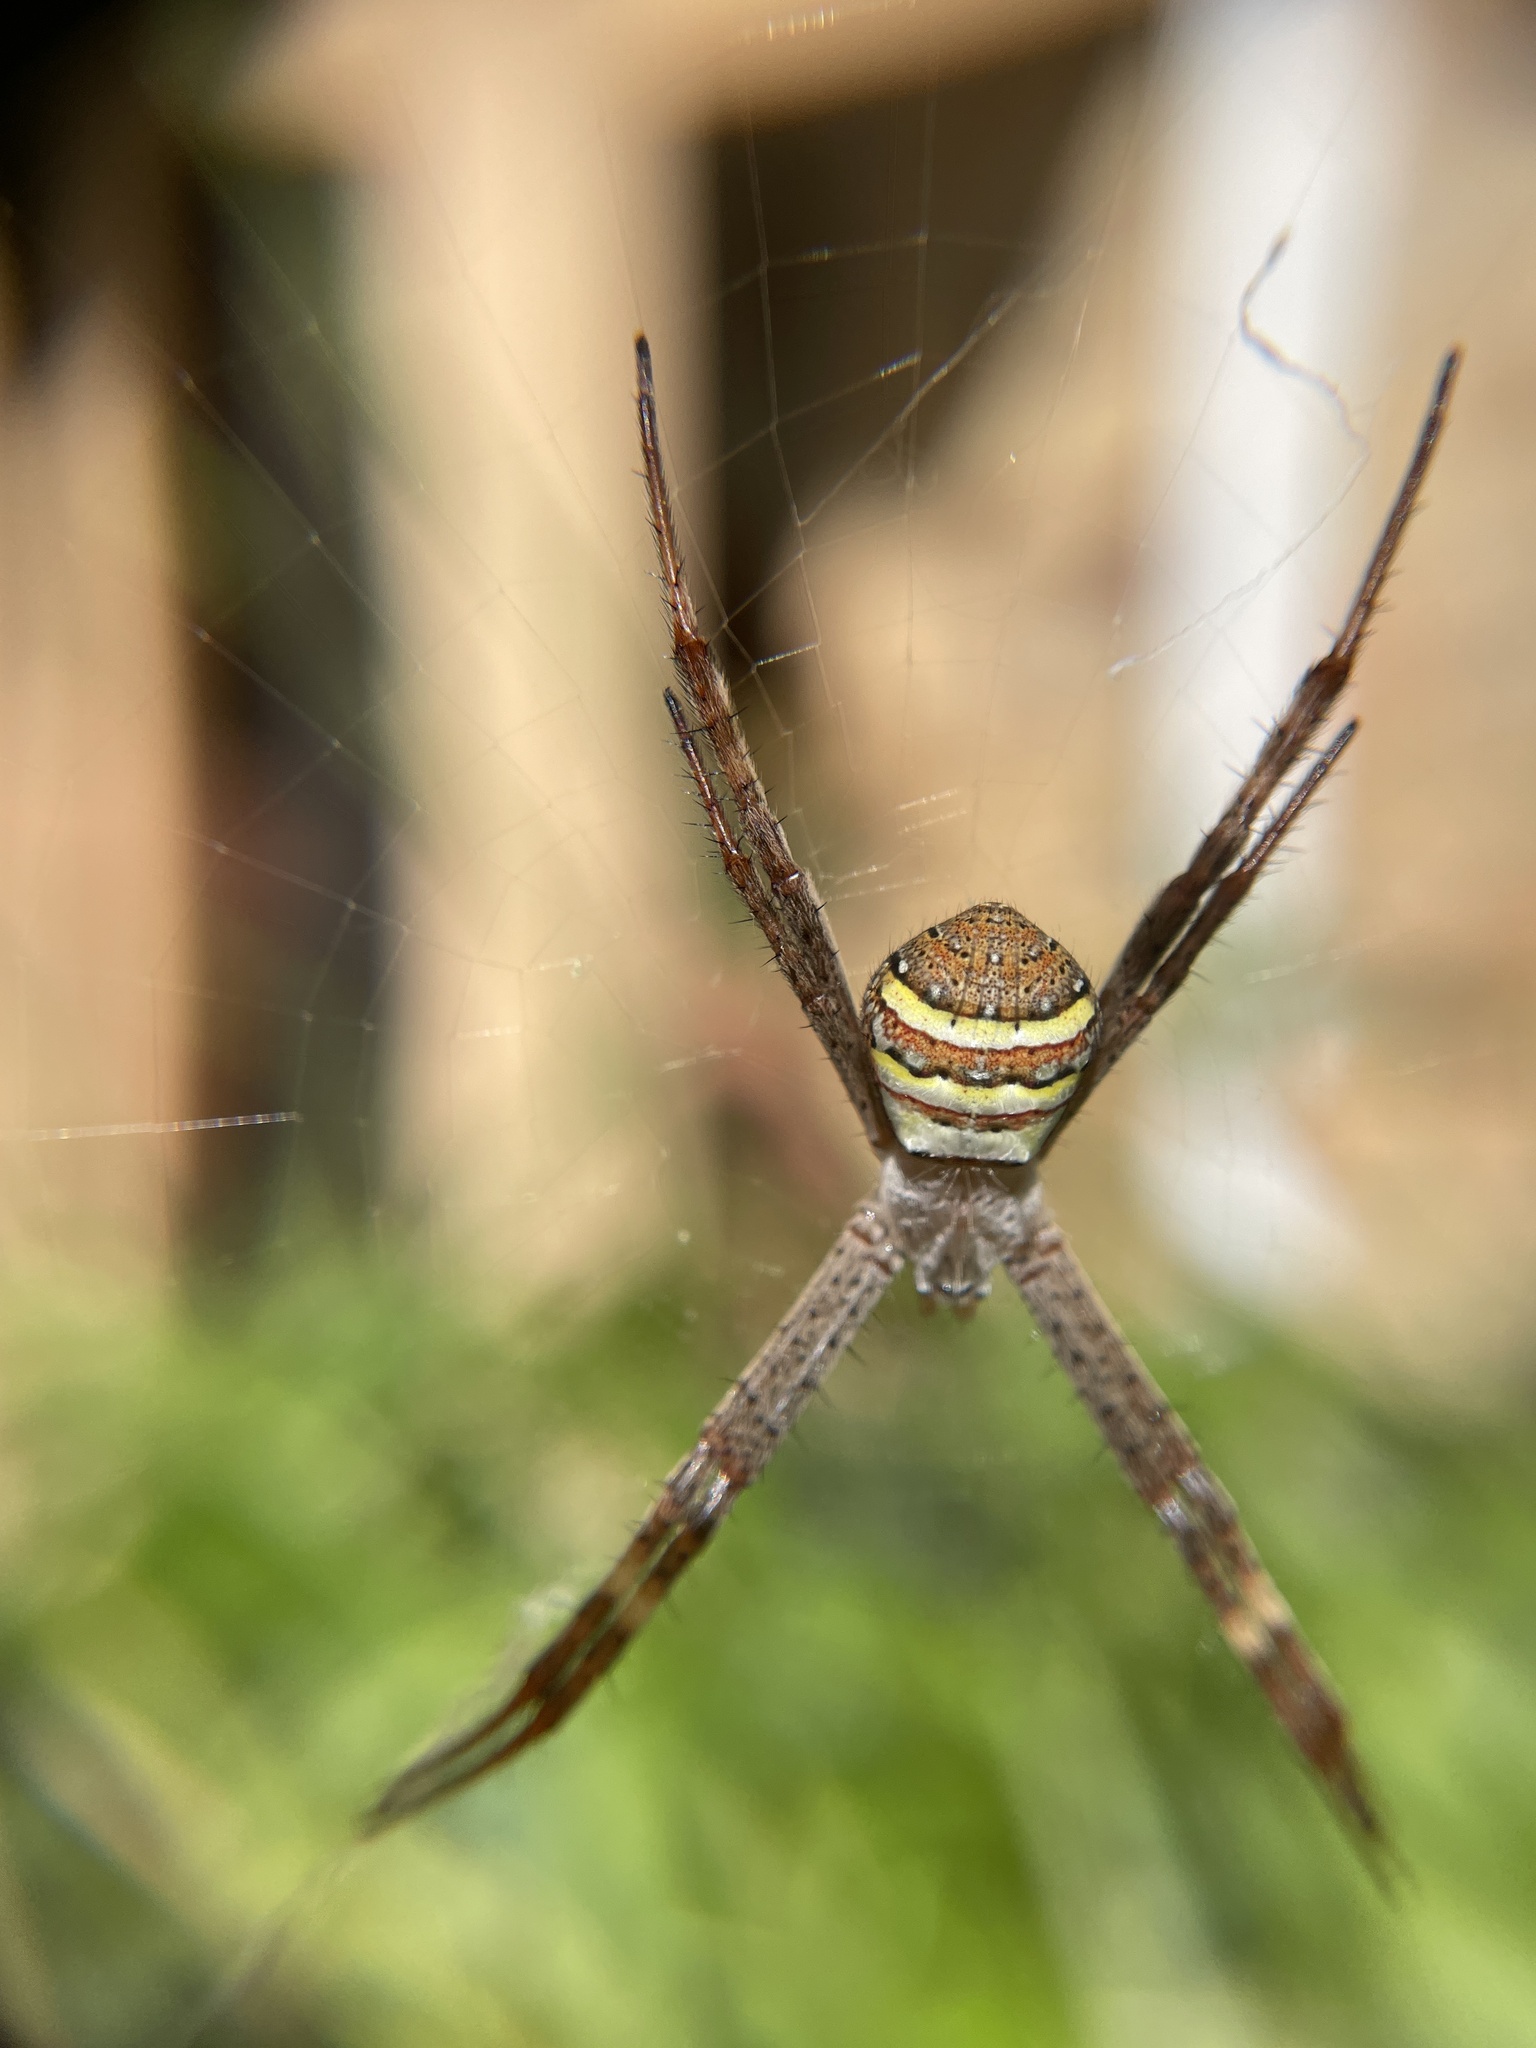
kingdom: Animalia
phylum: Arthropoda
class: Arachnida
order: Araneae
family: Araneidae
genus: Argiope
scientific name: Argiope keyserlingi
